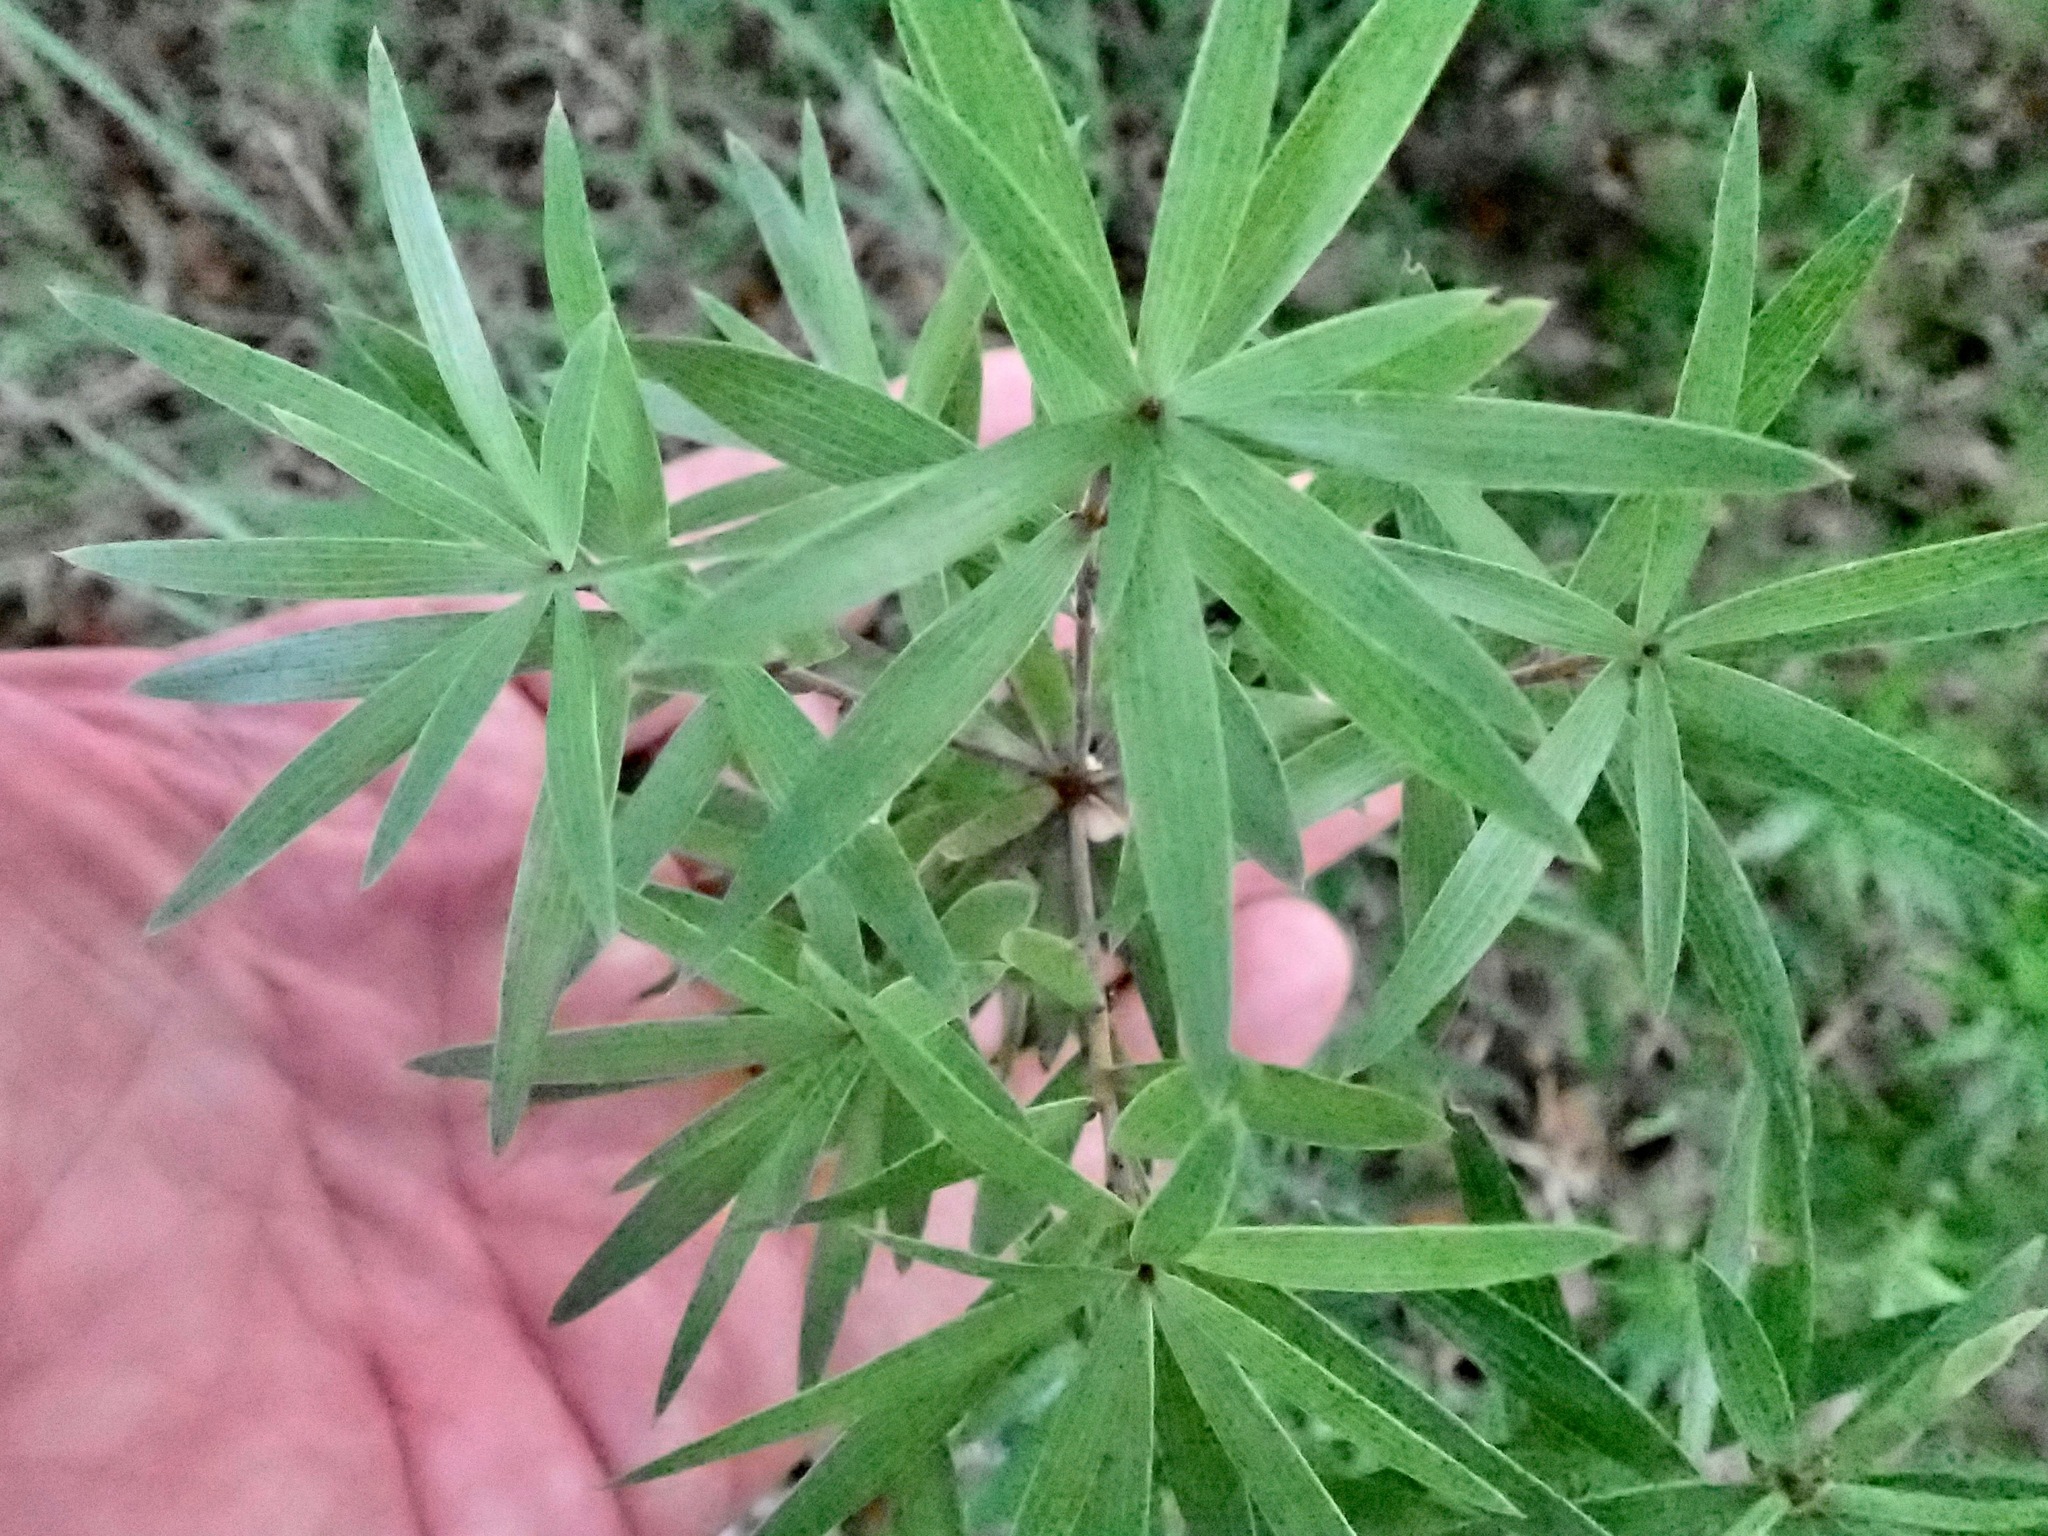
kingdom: Plantae
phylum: Tracheophyta
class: Magnoliopsida
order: Ericales
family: Ericaceae
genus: Leucopogon
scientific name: Leucopogon fasciculatus
